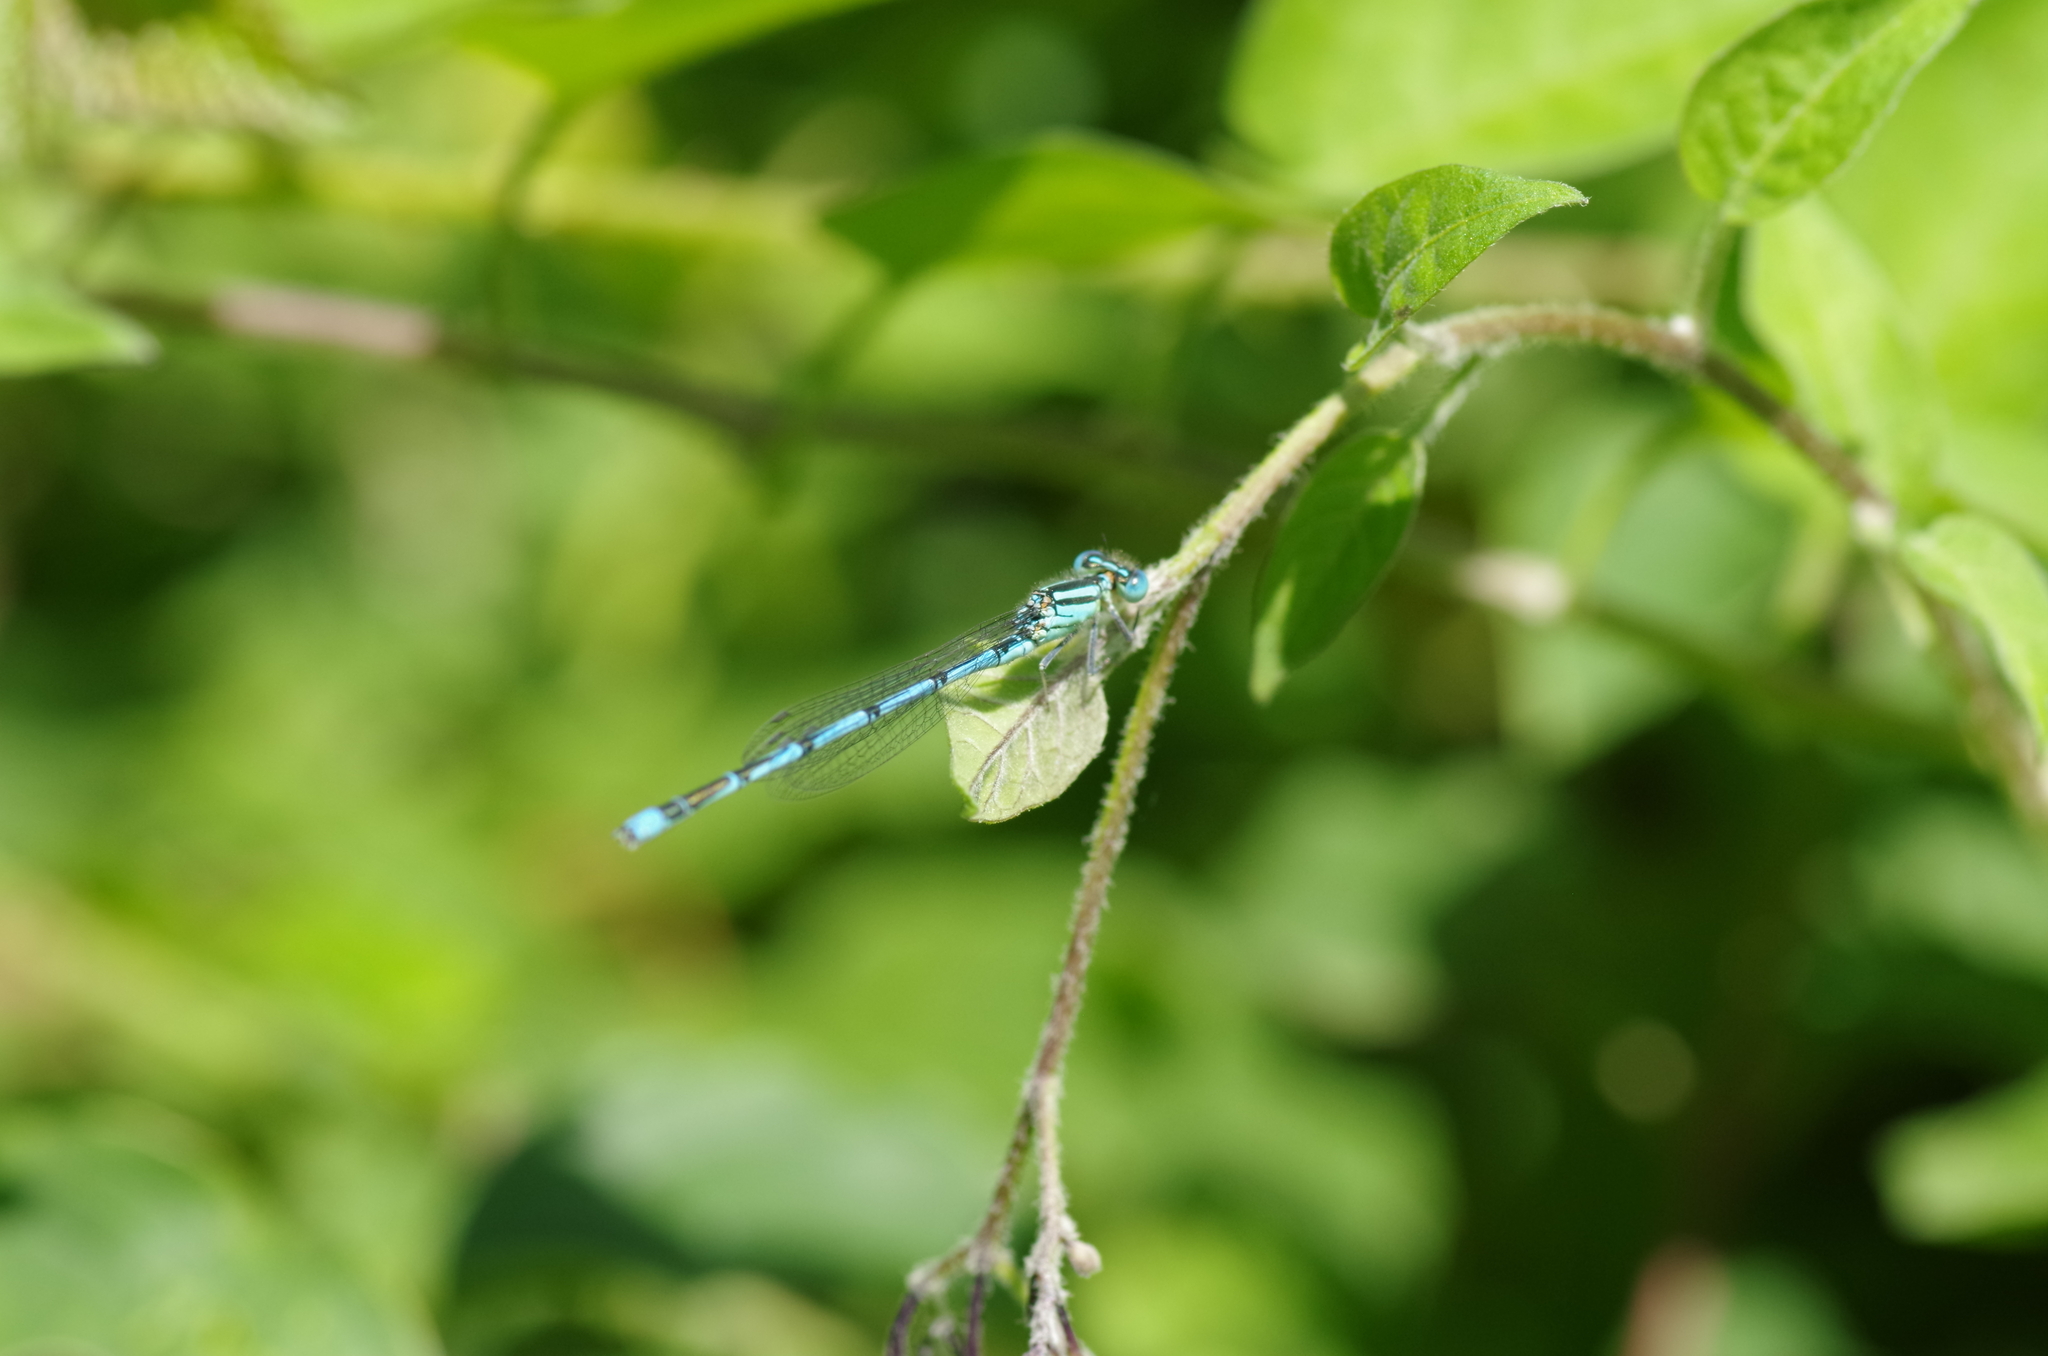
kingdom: Animalia
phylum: Arthropoda
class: Insecta
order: Odonata
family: Coenagrionidae
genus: Erythromma
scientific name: Erythromma lindenii
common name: Blue-eye
